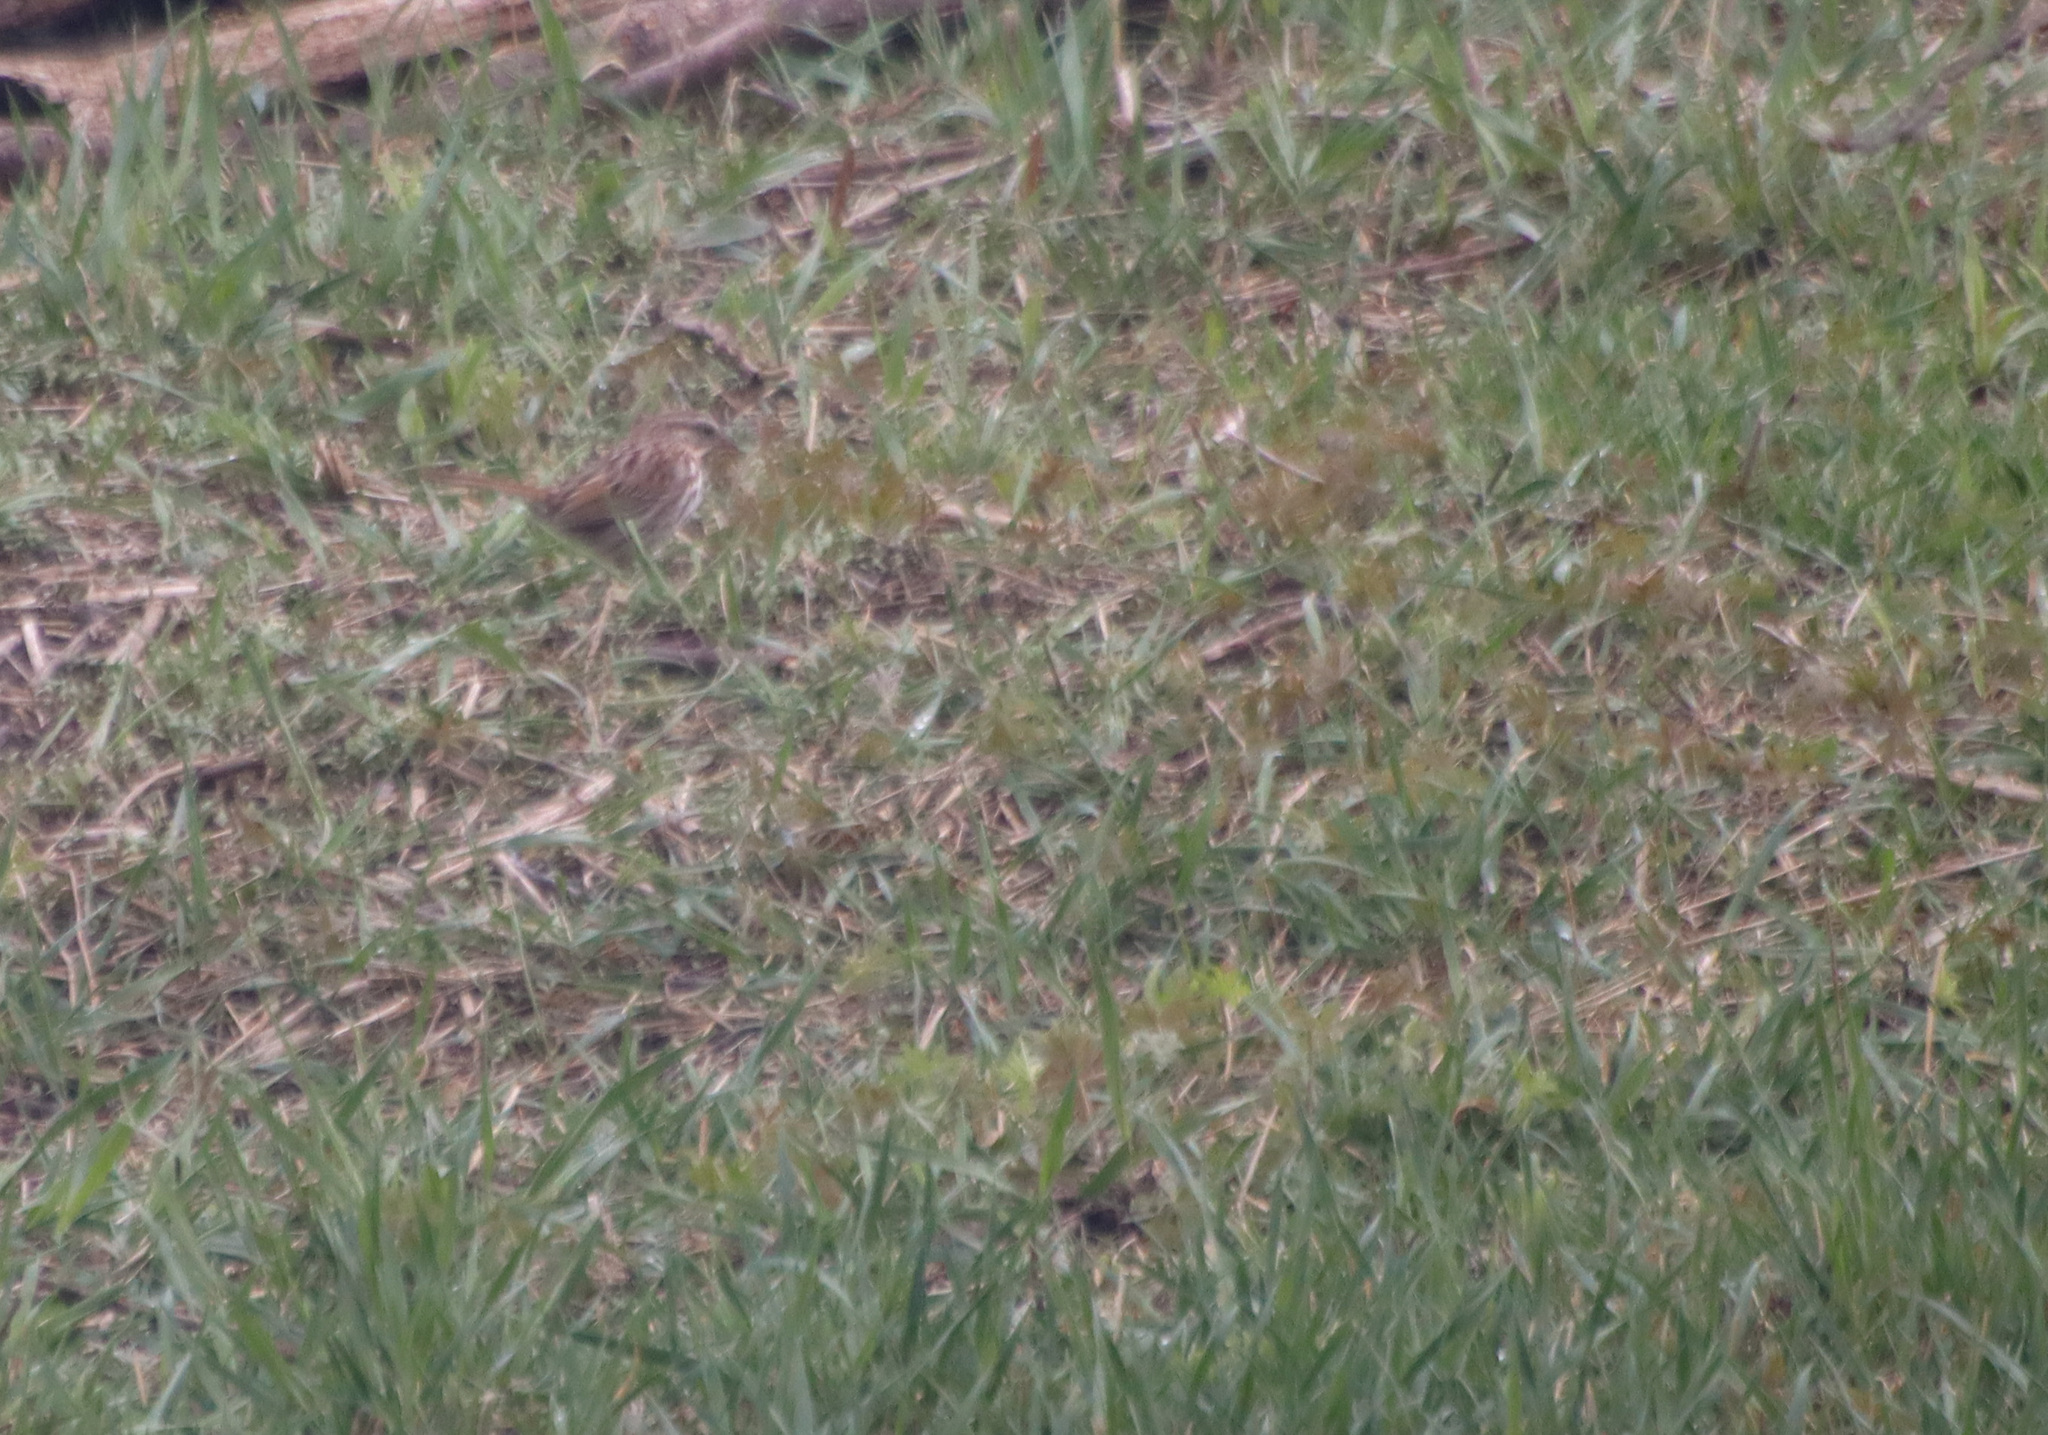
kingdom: Animalia
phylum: Chordata
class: Aves
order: Passeriformes
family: Passerellidae
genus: Melospiza
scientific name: Melospiza melodia
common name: Song sparrow
